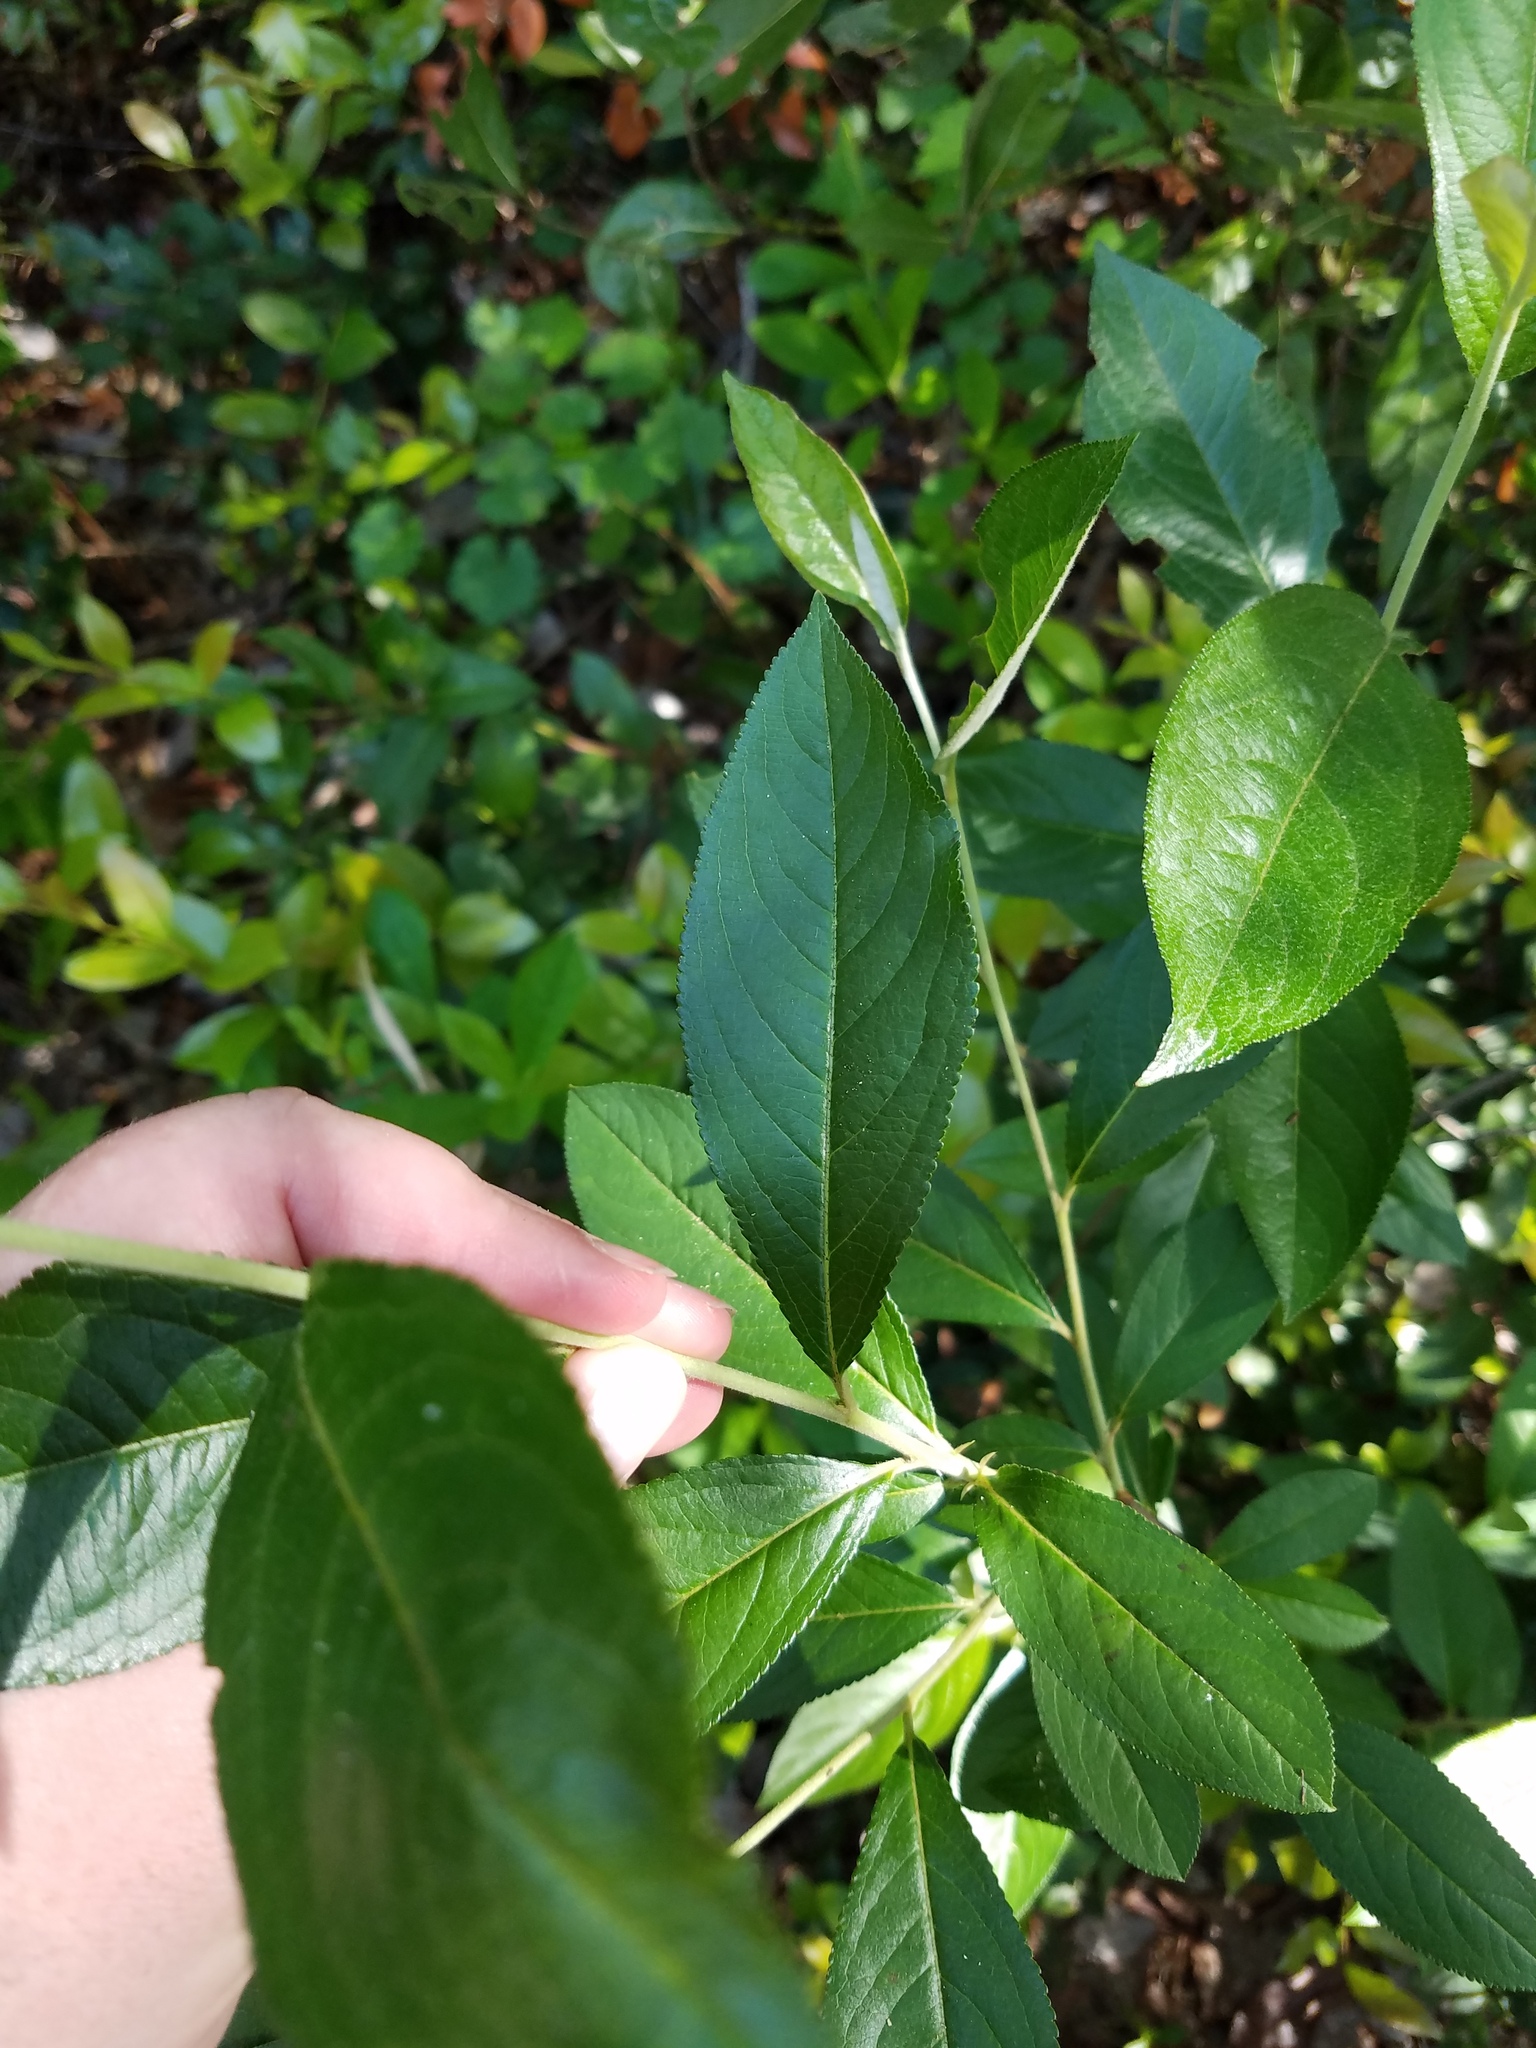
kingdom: Plantae
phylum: Tracheophyta
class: Magnoliopsida
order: Rosales
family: Rosaceae
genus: Aronia
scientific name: Aronia arbutifolia
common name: Red chokeberry
